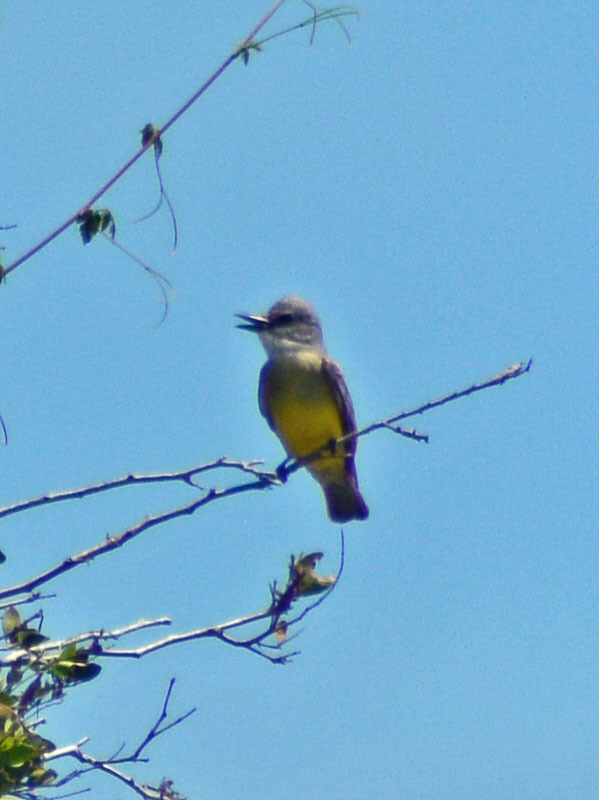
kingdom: Animalia
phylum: Chordata
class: Aves
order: Passeriformes
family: Tyrannidae
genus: Tyrannus
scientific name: Tyrannus melancholicus
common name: Tropical kingbird
